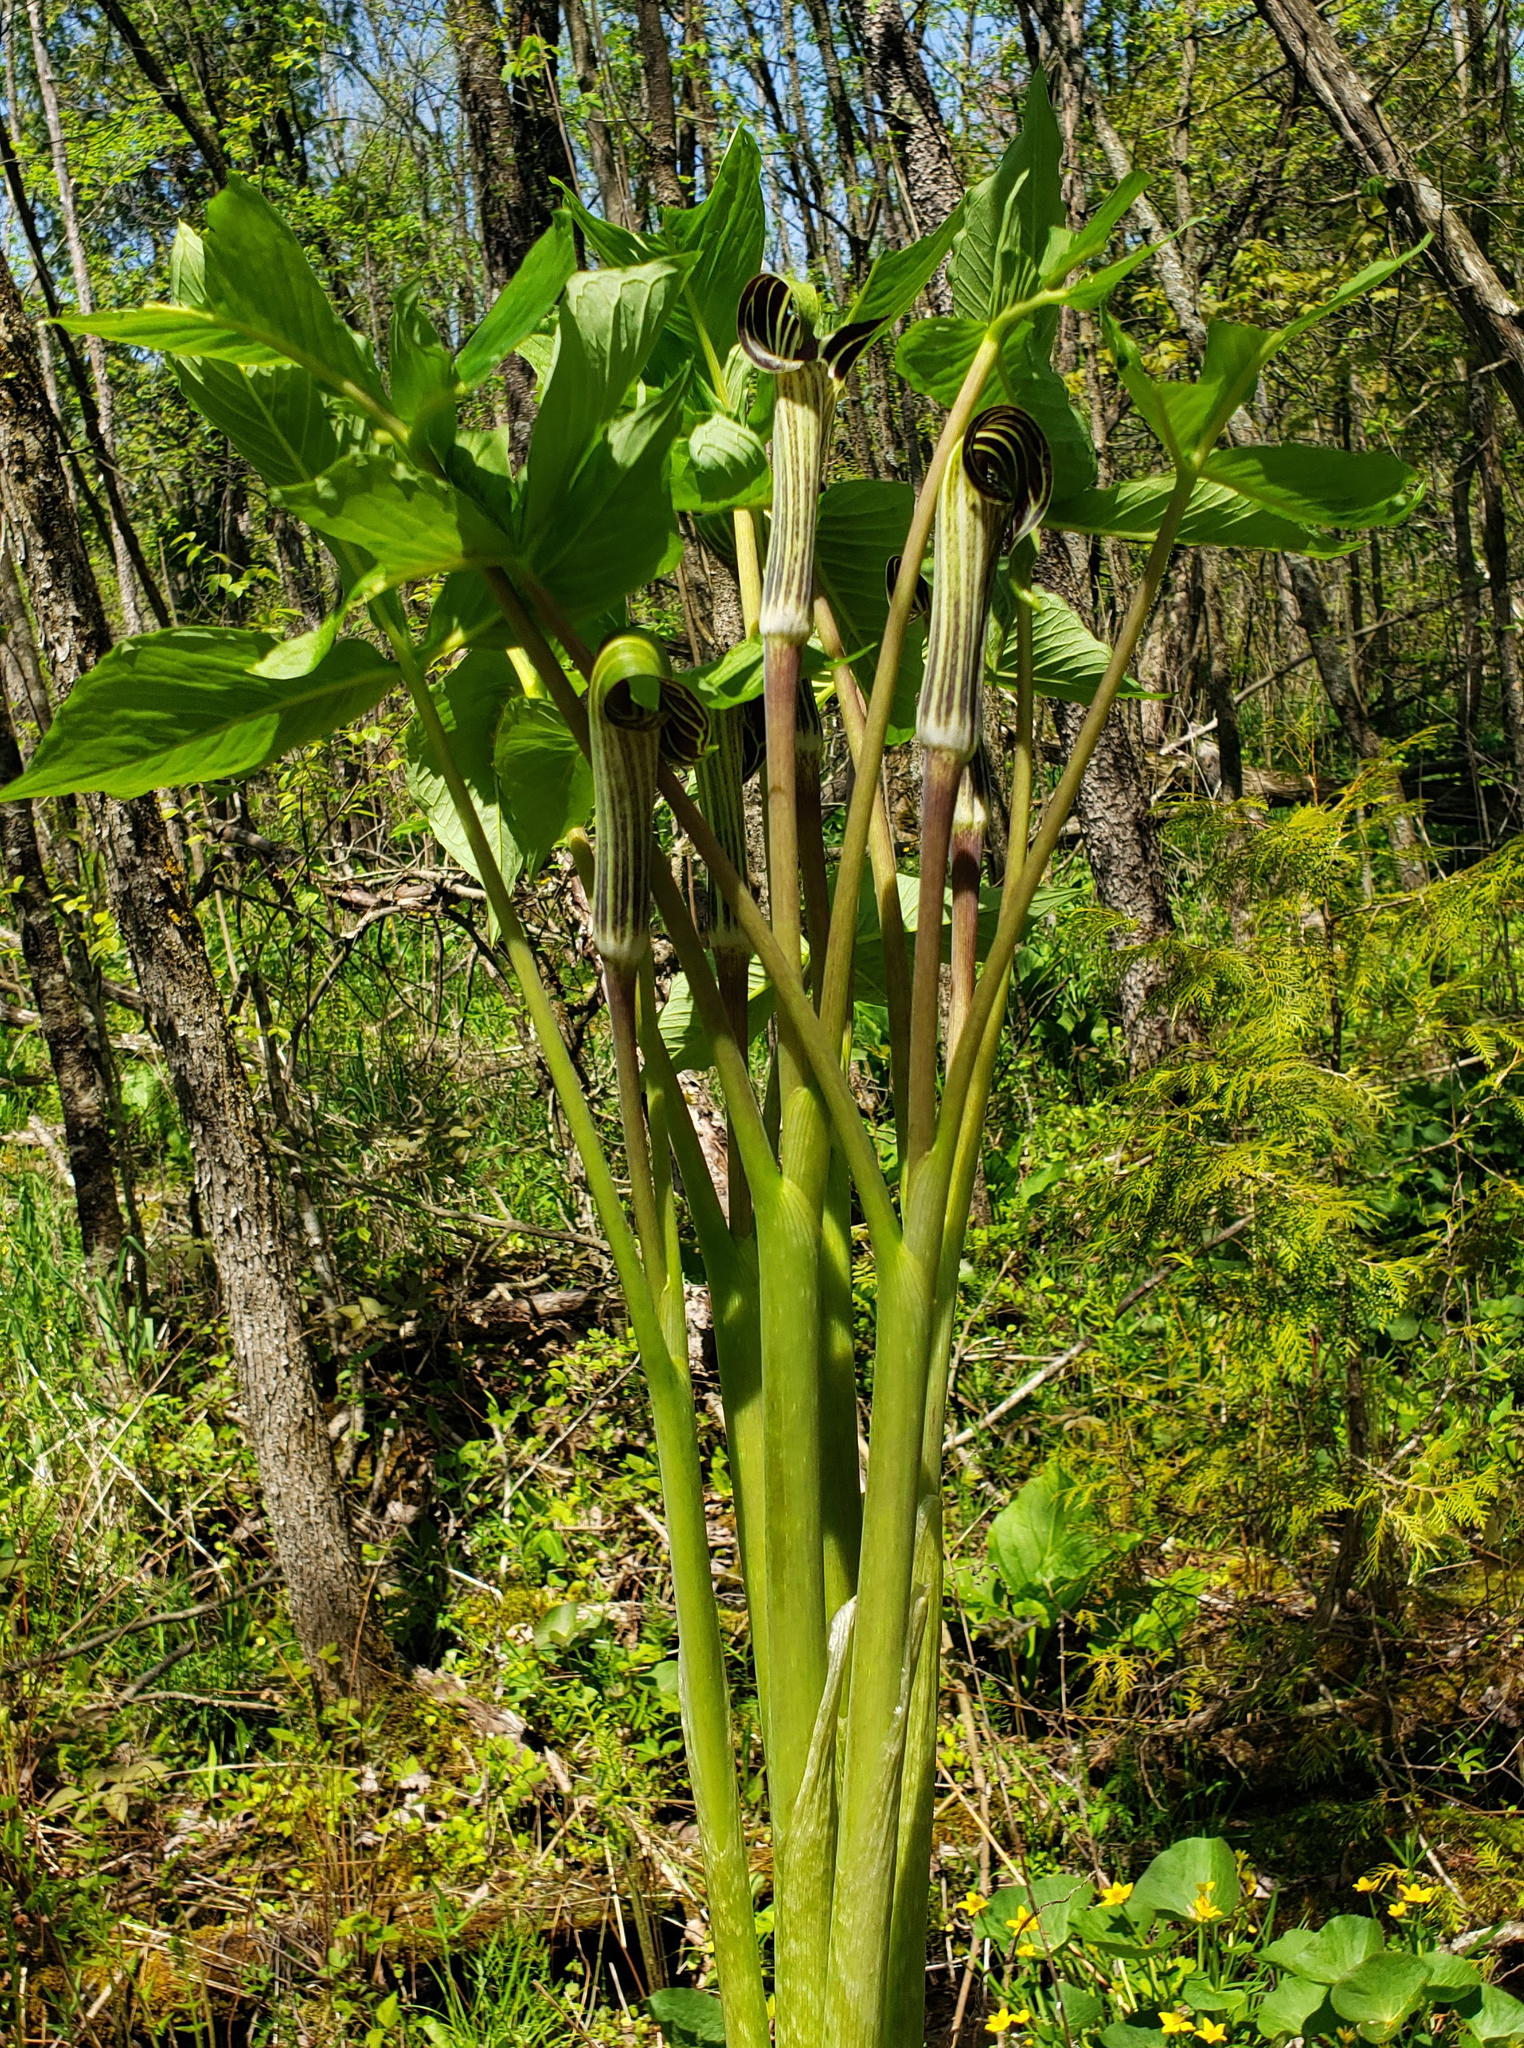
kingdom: Plantae
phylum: Tracheophyta
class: Liliopsida
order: Alismatales
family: Araceae
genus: Arisaema
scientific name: Arisaema triphyllum
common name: Jack-in-the-pulpit
